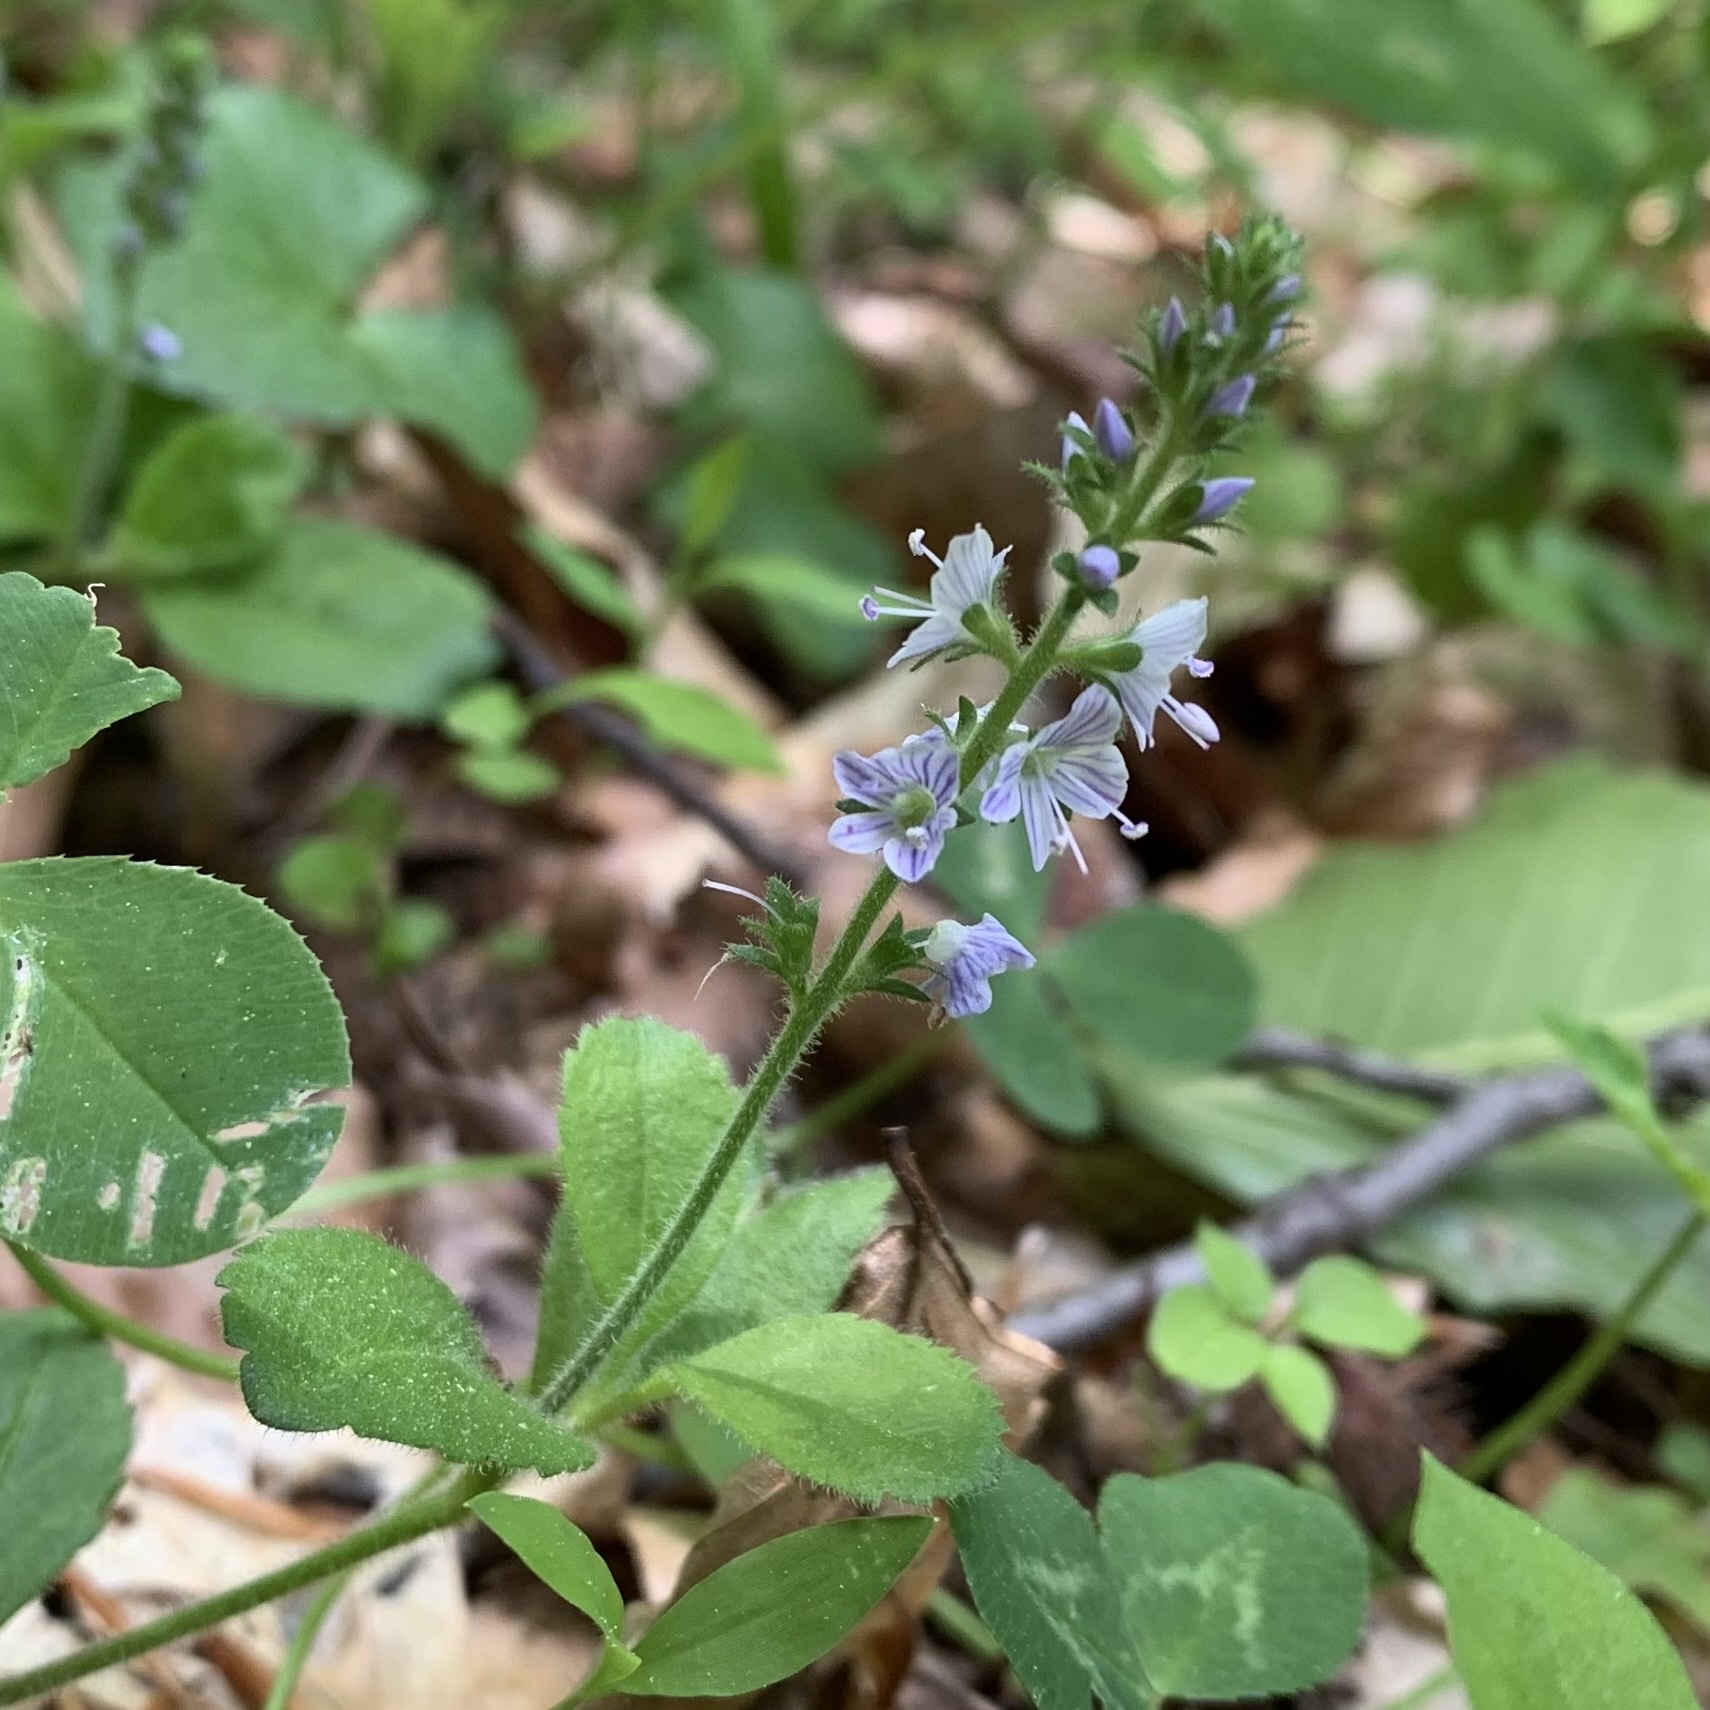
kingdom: Plantae
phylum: Tracheophyta
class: Magnoliopsida
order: Lamiales
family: Plantaginaceae
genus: Veronica
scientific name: Veronica officinalis
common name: Common speedwell
